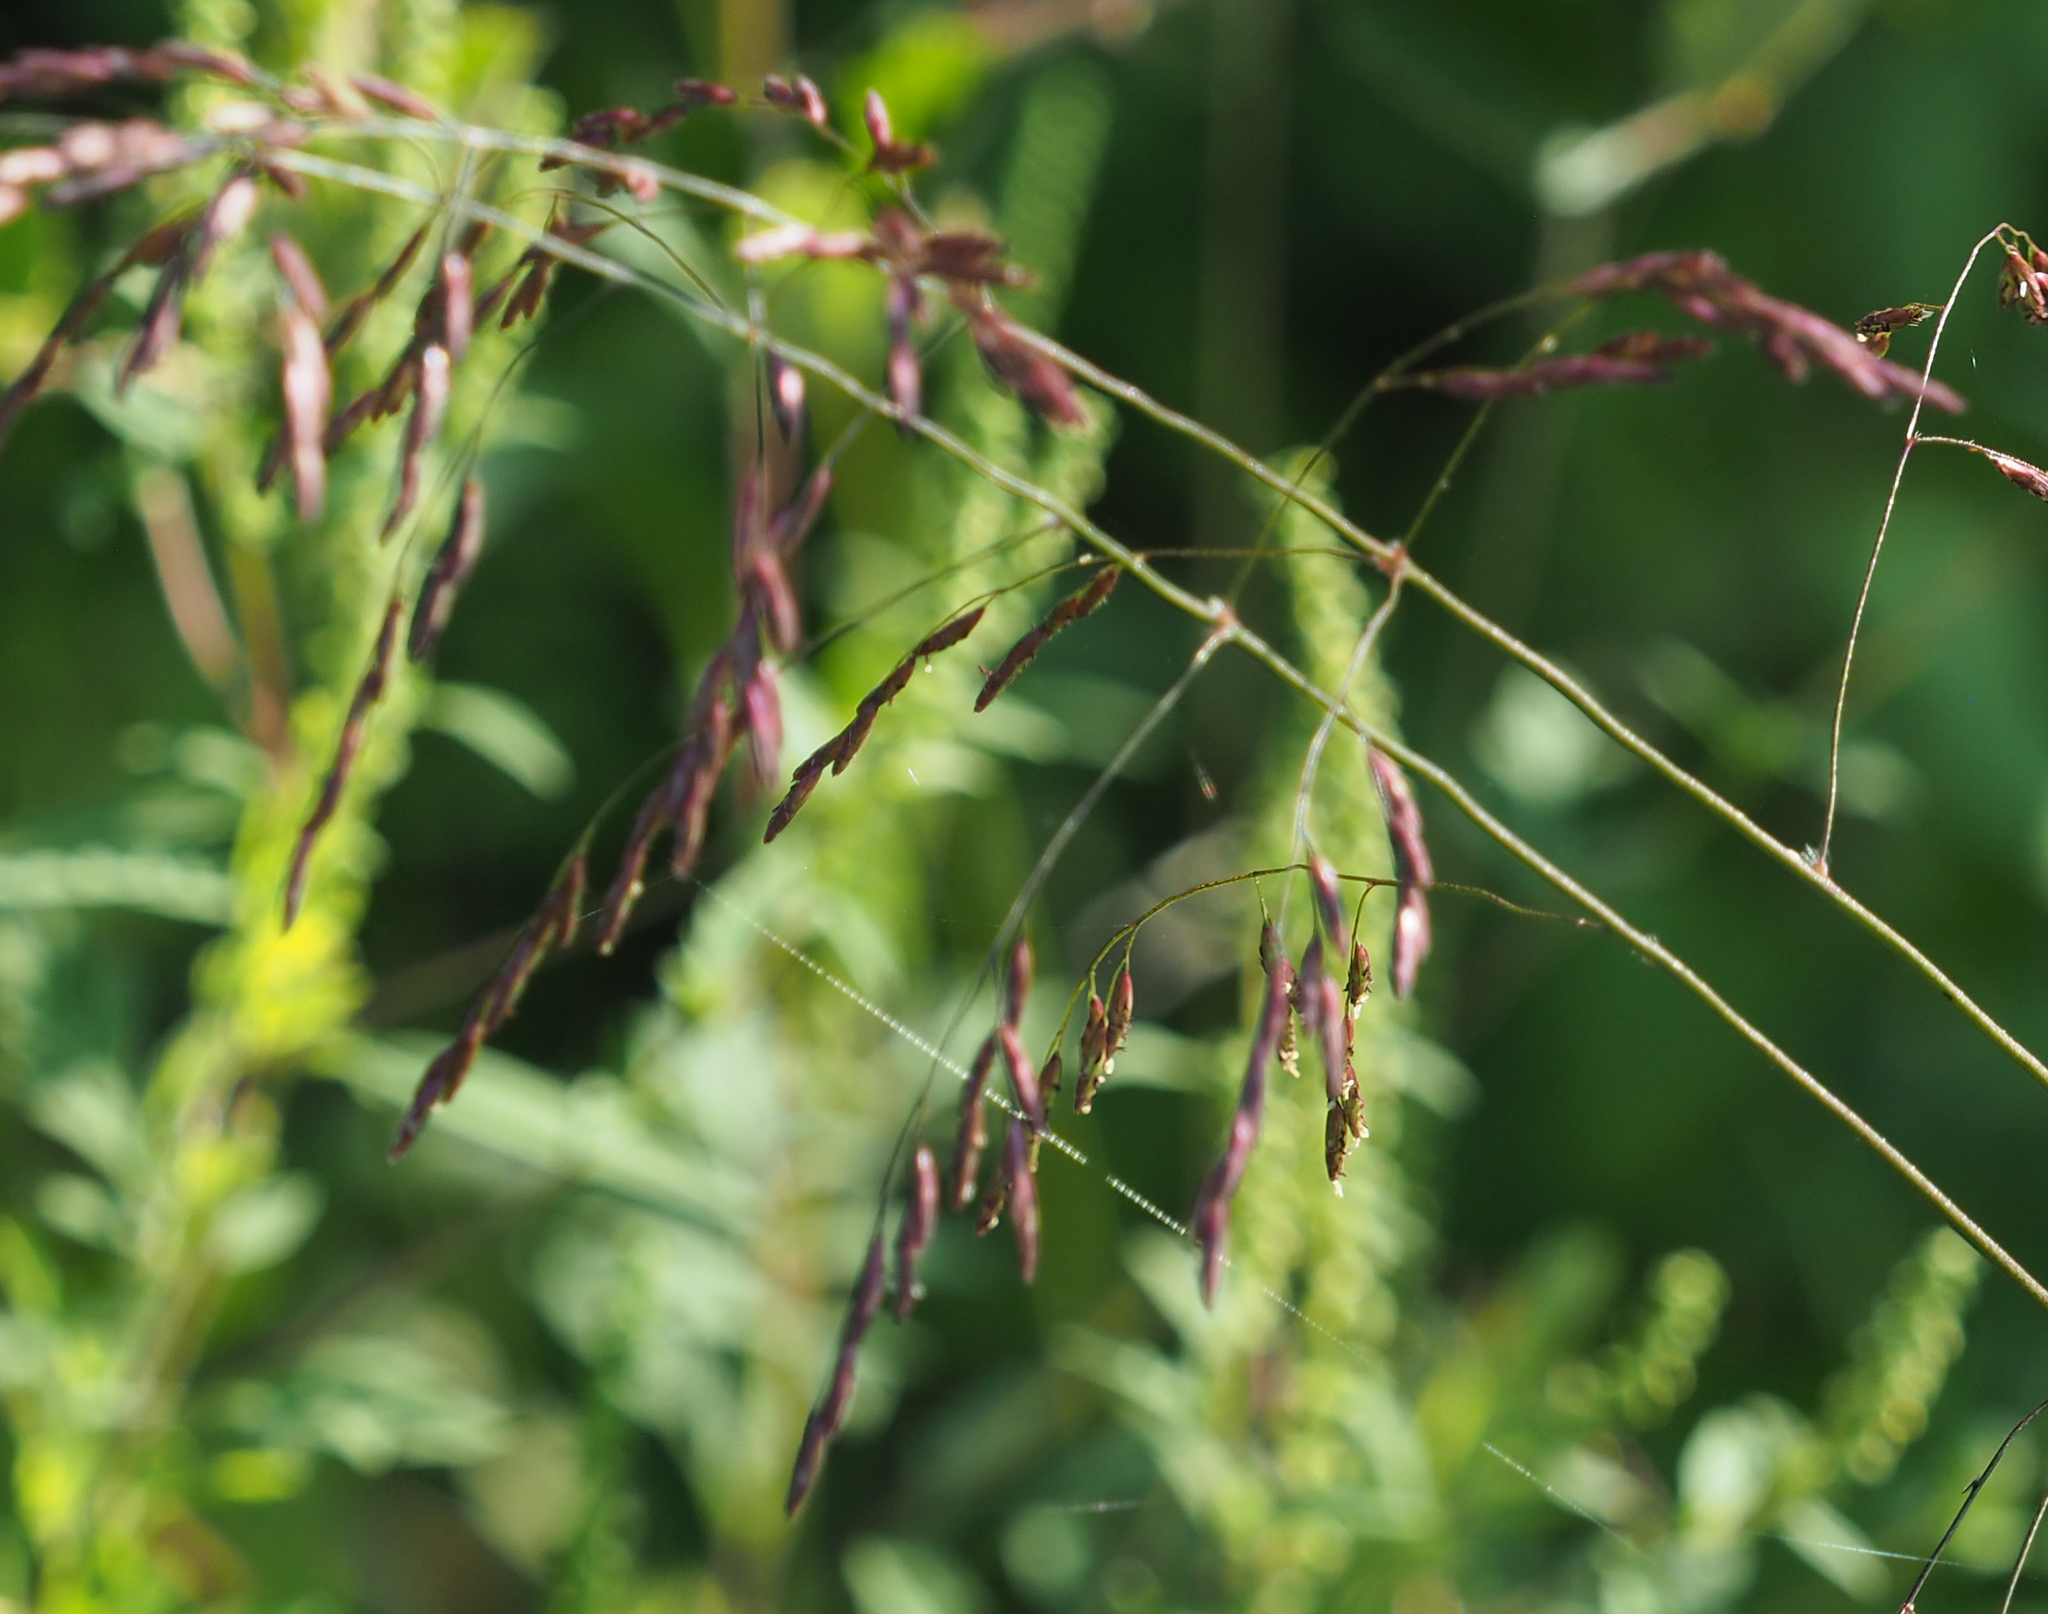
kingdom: Plantae
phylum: Tracheophyta
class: Liliopsida
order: Poales
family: Poaceae
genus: Tridens
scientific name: Tridens flavus
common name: Purpletop
